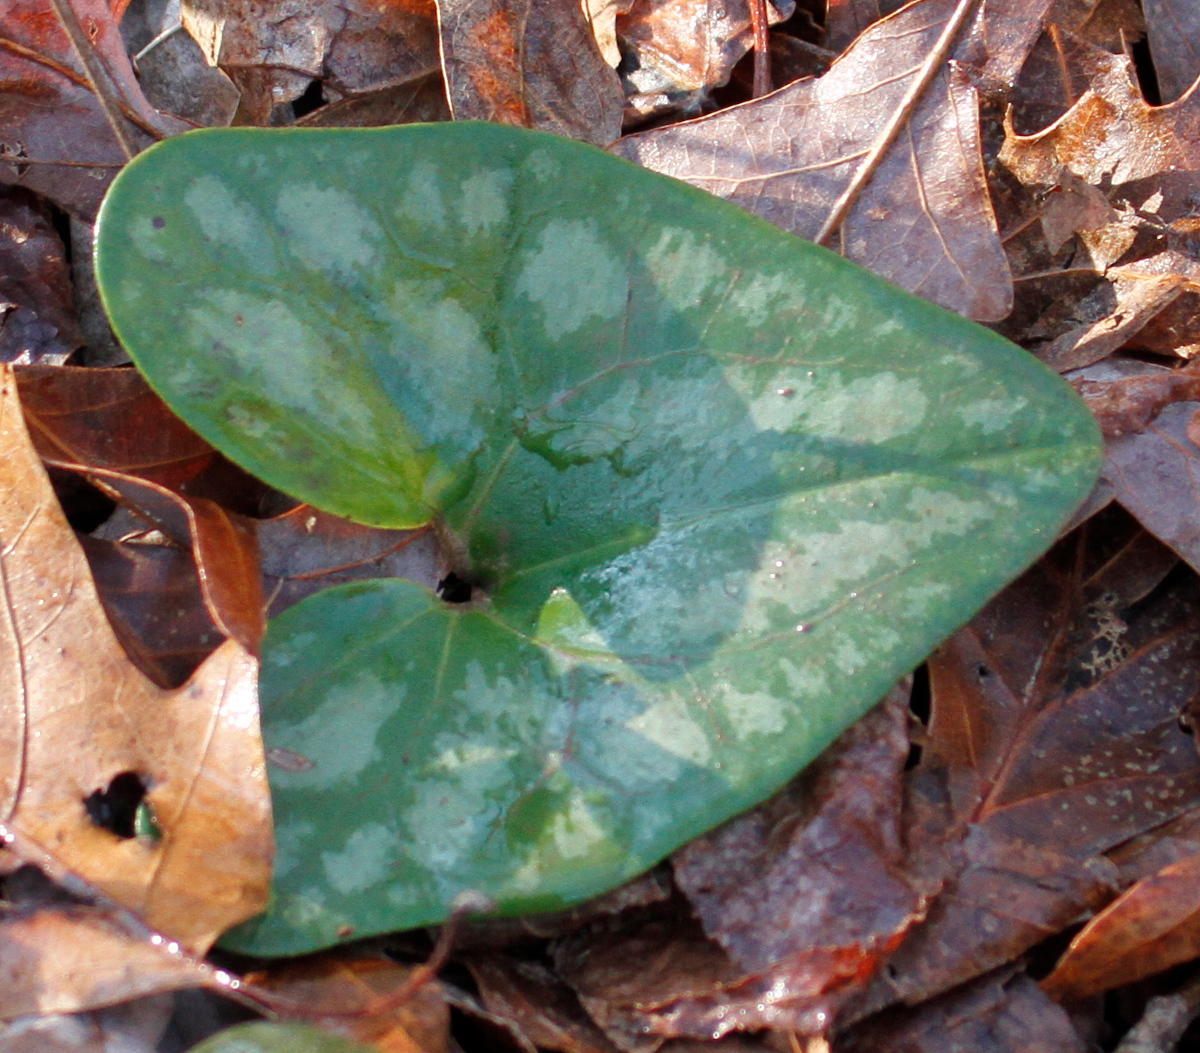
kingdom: Plantae
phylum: Tracheophyta
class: Magnoliopsida
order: Piperales
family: Aristolochiaceae
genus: Hexastylis
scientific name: Hexastylis arifolia
